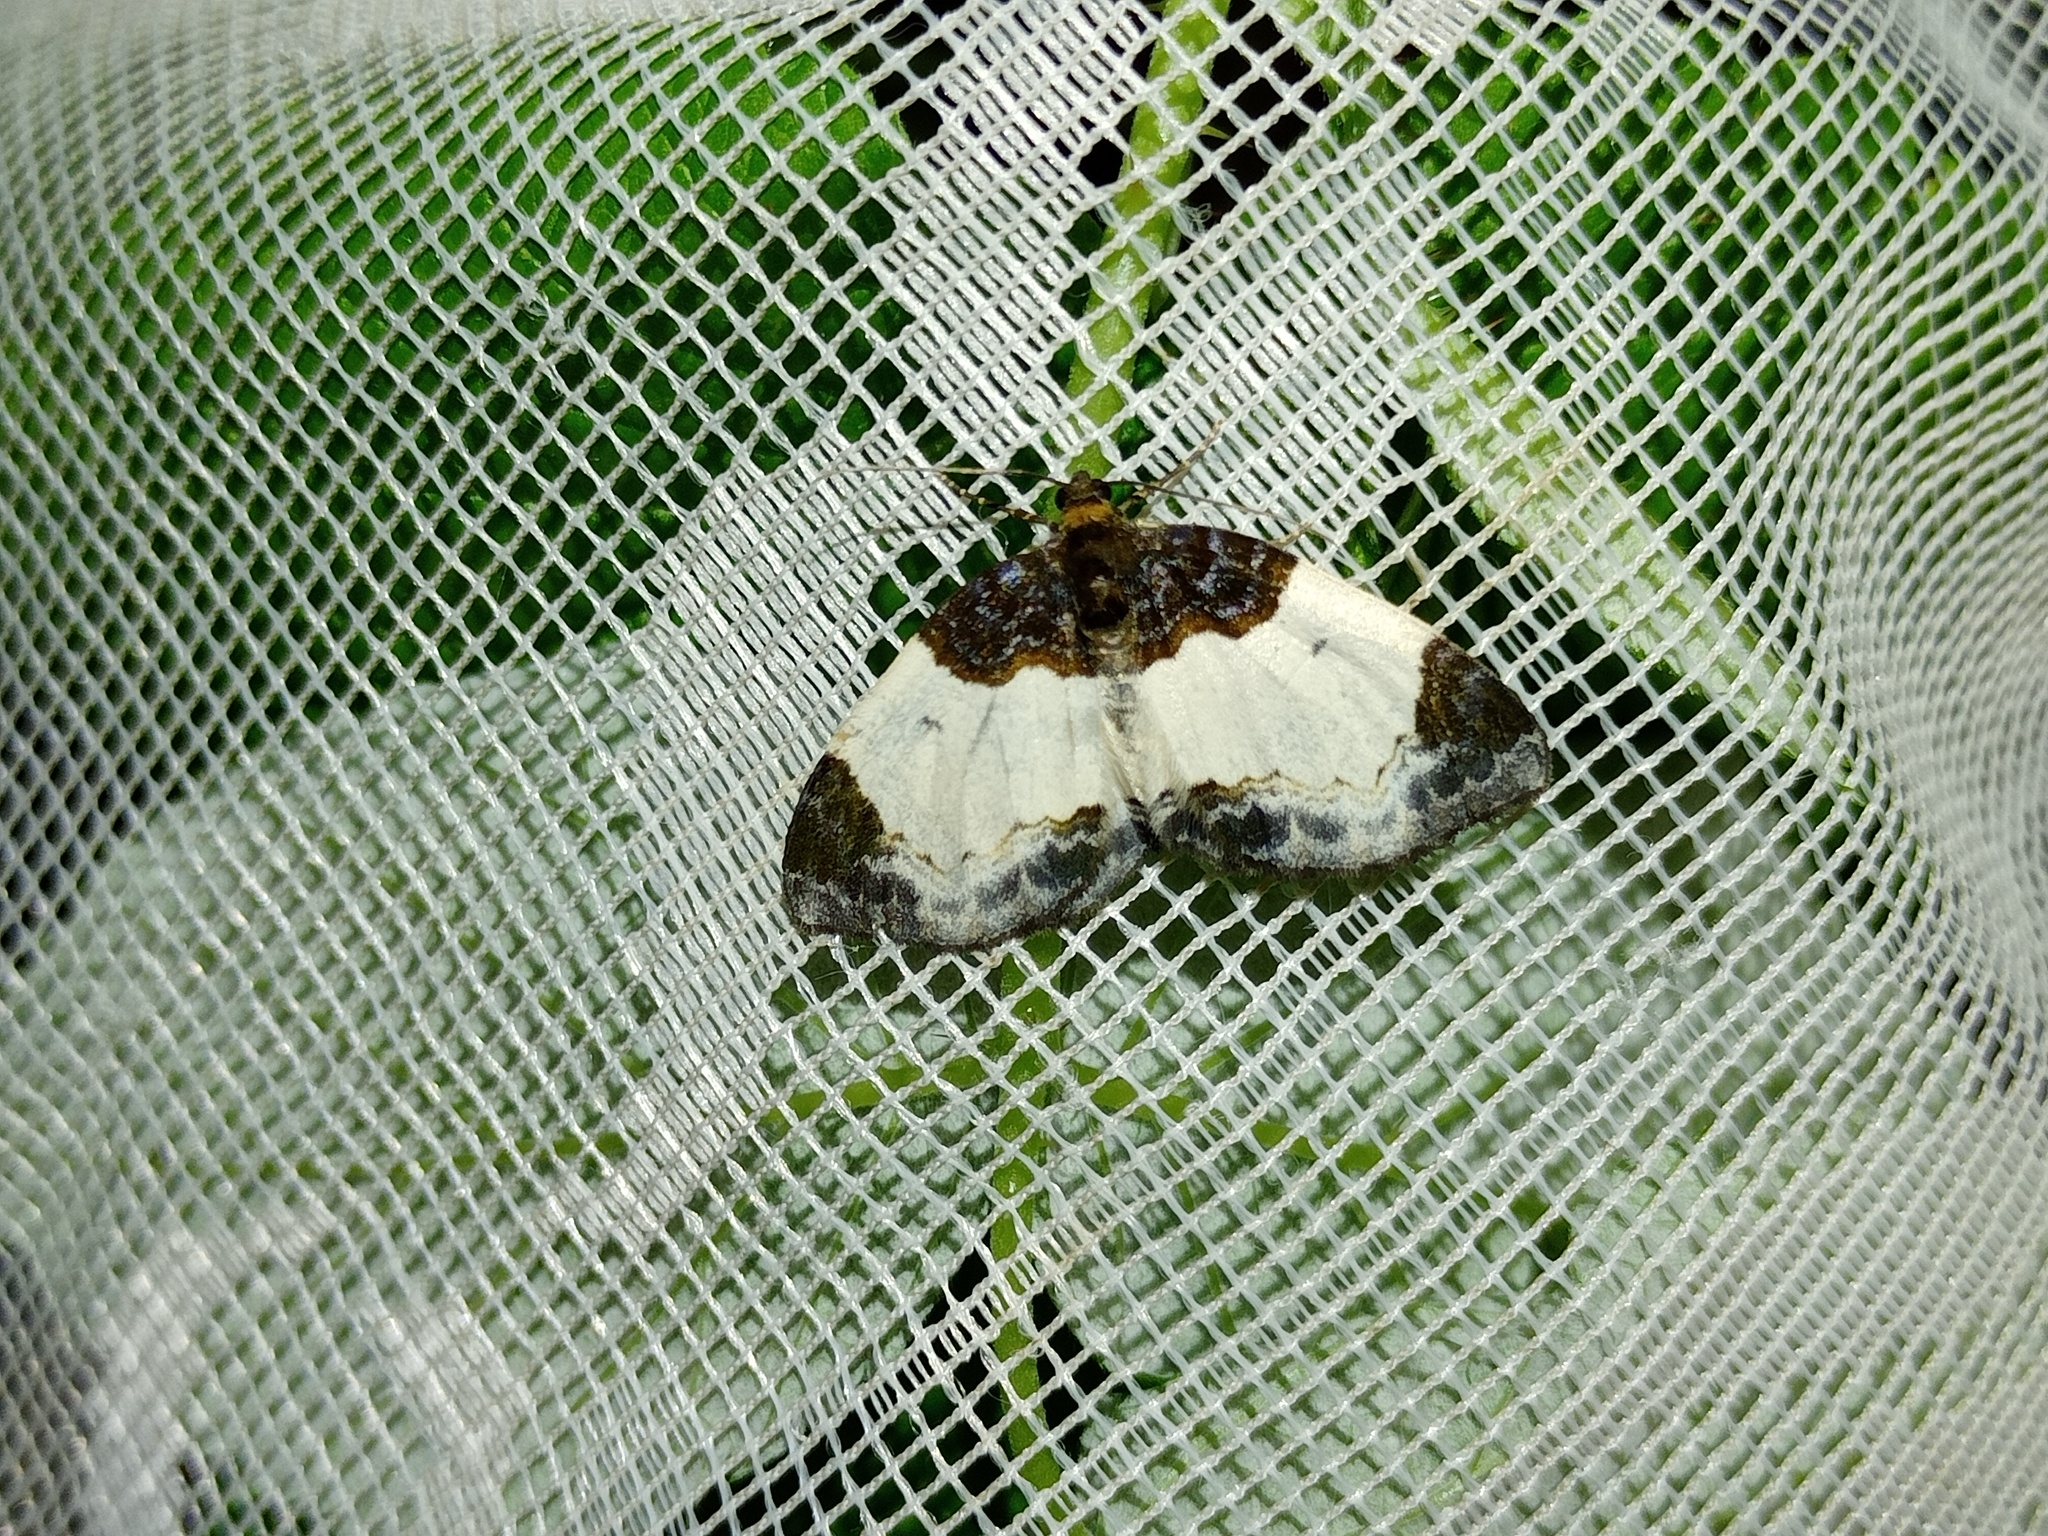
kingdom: Animalia
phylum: Arthropoda
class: Insecta
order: Lepidoptera
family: Geometridae
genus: Mesoleuca
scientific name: Mesoleuca albicillata
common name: Beautiful carpet
